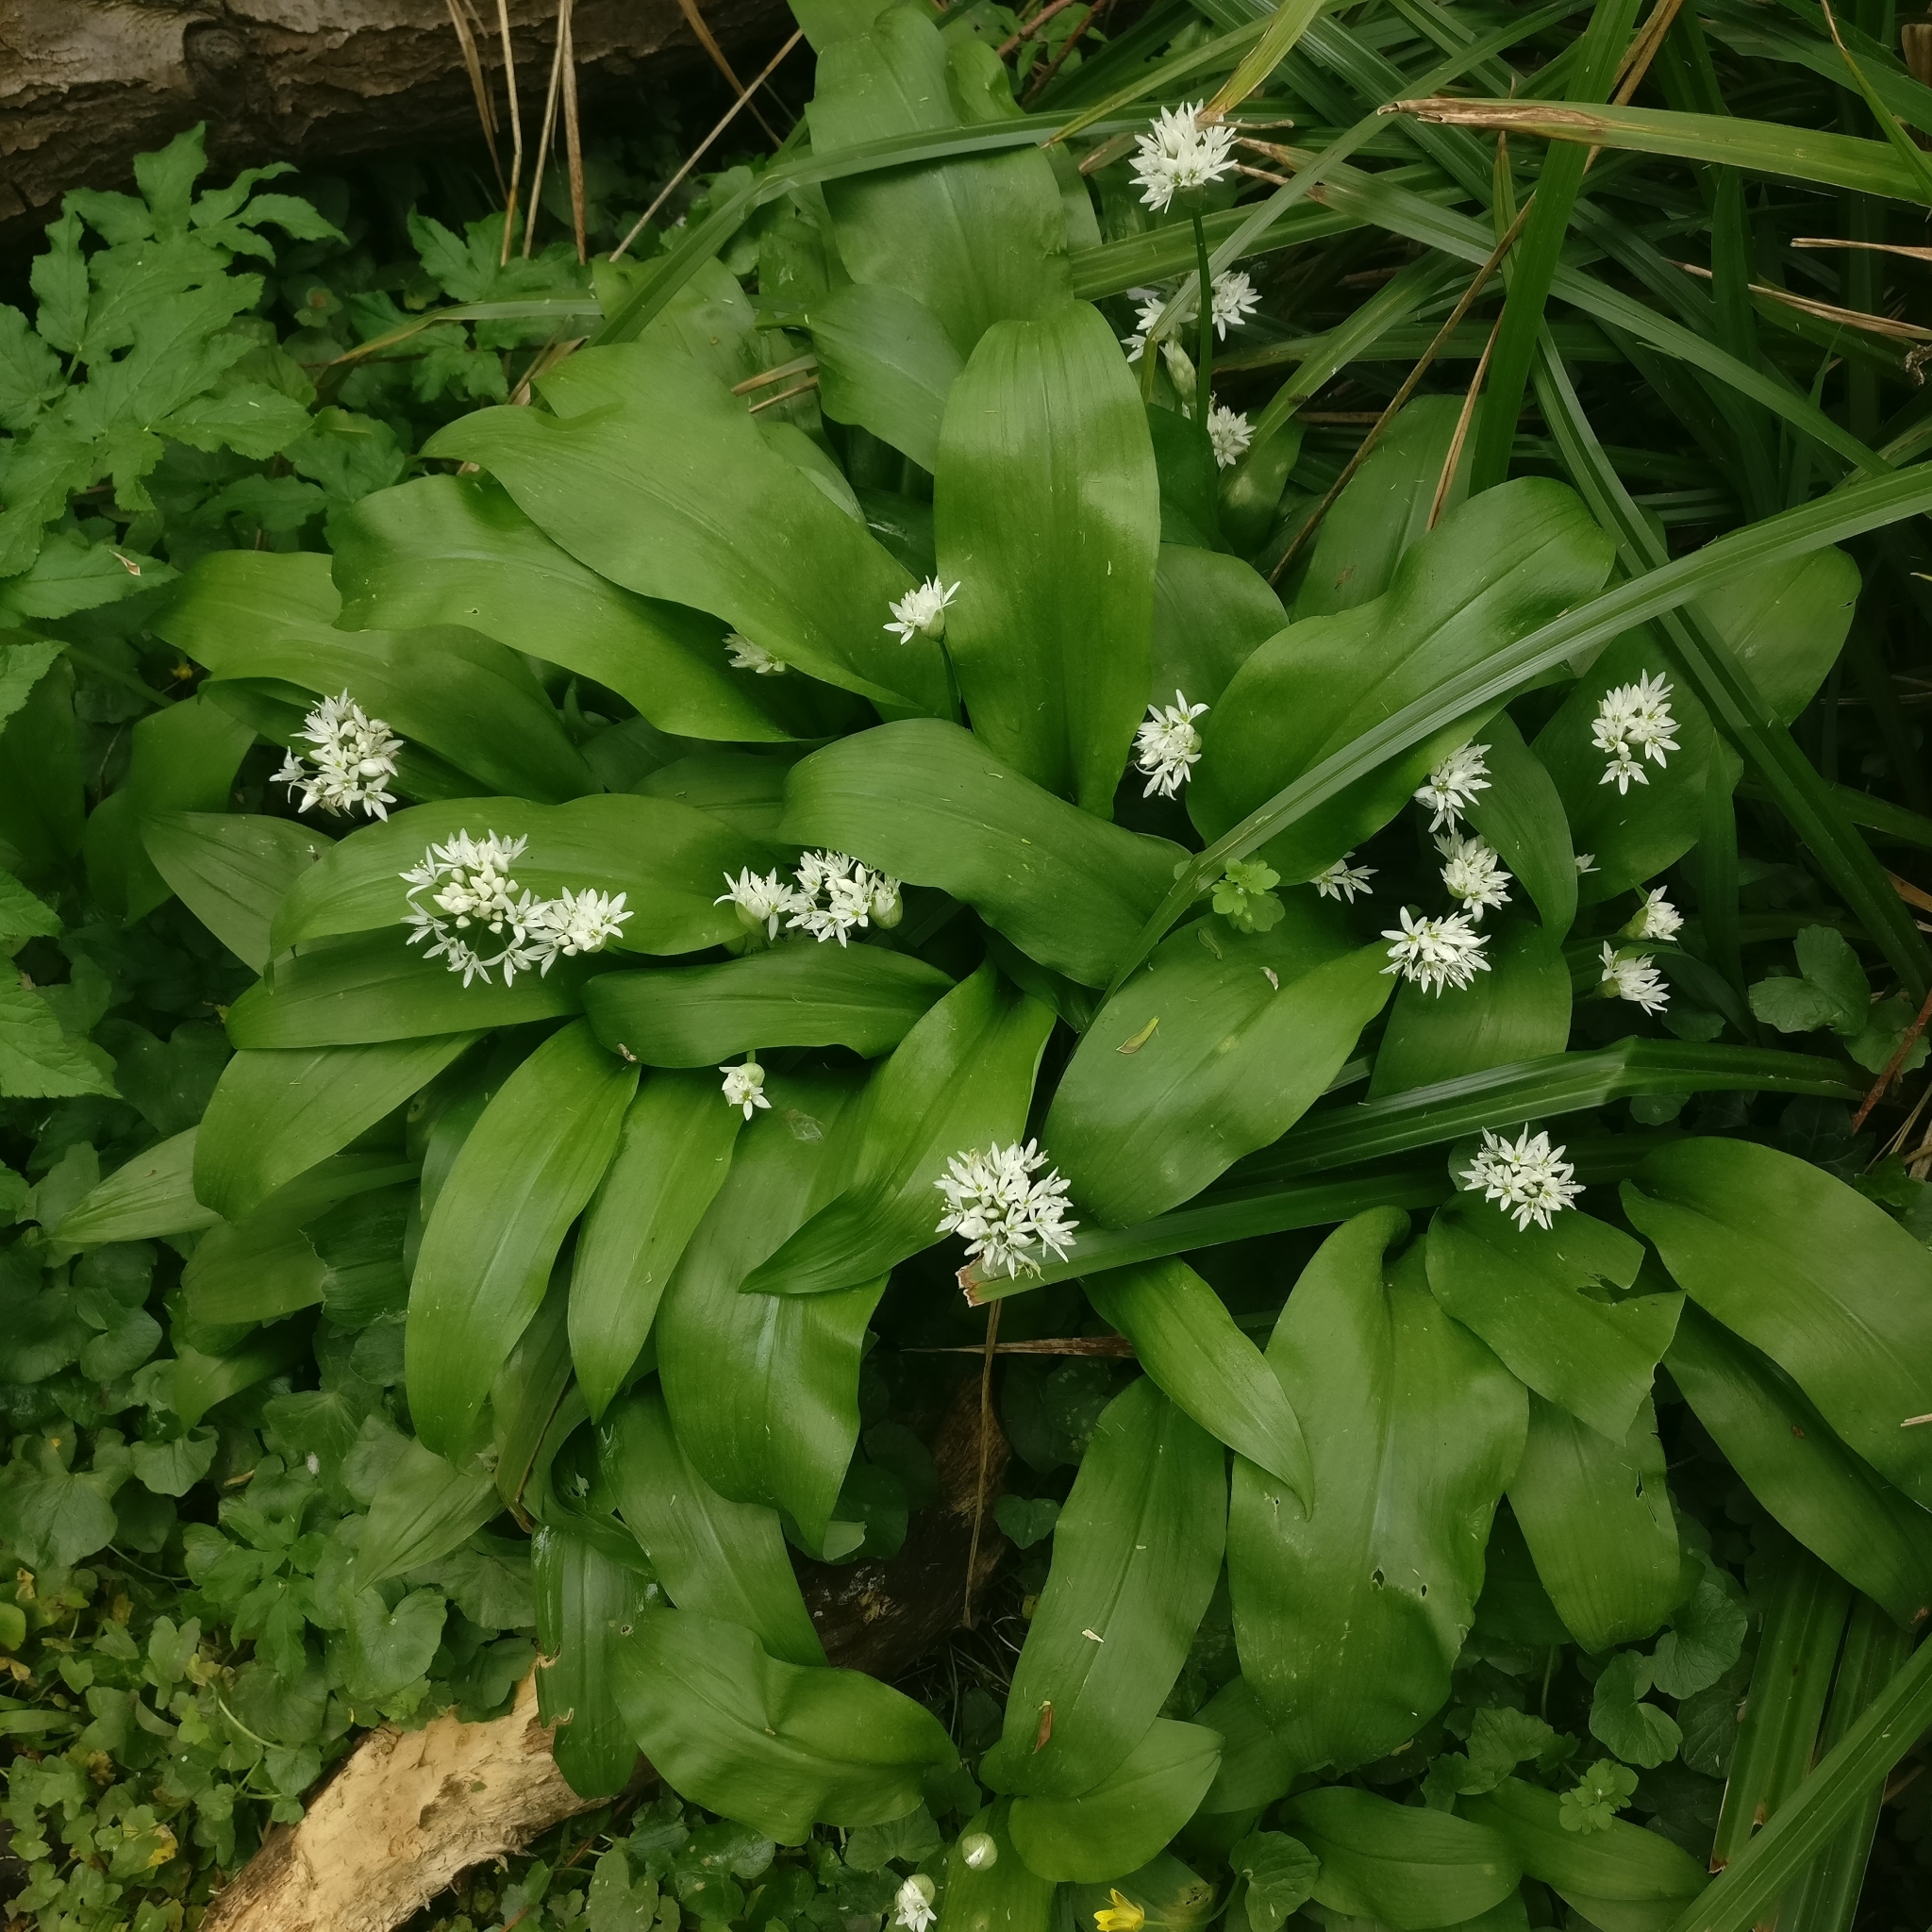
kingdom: Plantae
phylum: Tracheophyta
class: Liliopsida
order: Asparagales
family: Amaryllidaceae
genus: Allium
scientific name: Allium ursinum
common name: Ramsons
